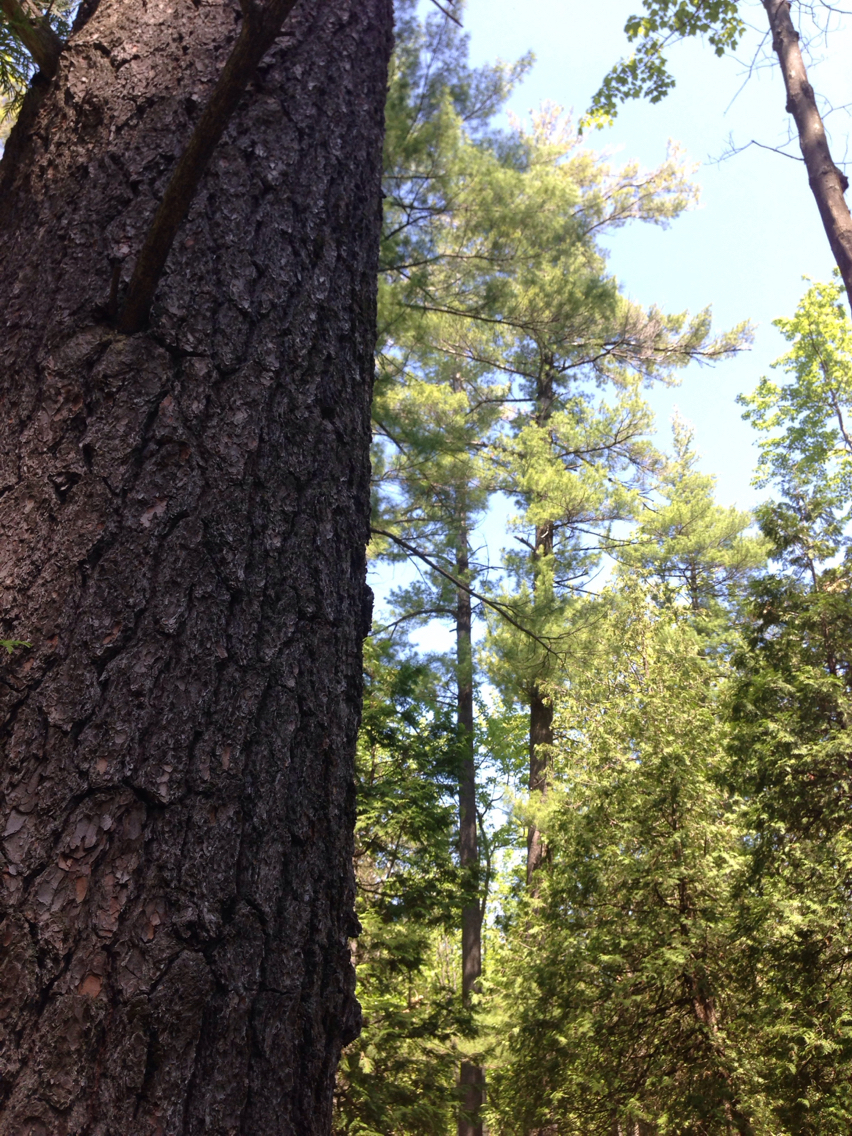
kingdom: Plantae
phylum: Tracheophyta
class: Pinopsida
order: Pinales
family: Pinaceae
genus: Pinus
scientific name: Pinus strobus
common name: Weymouth pine
